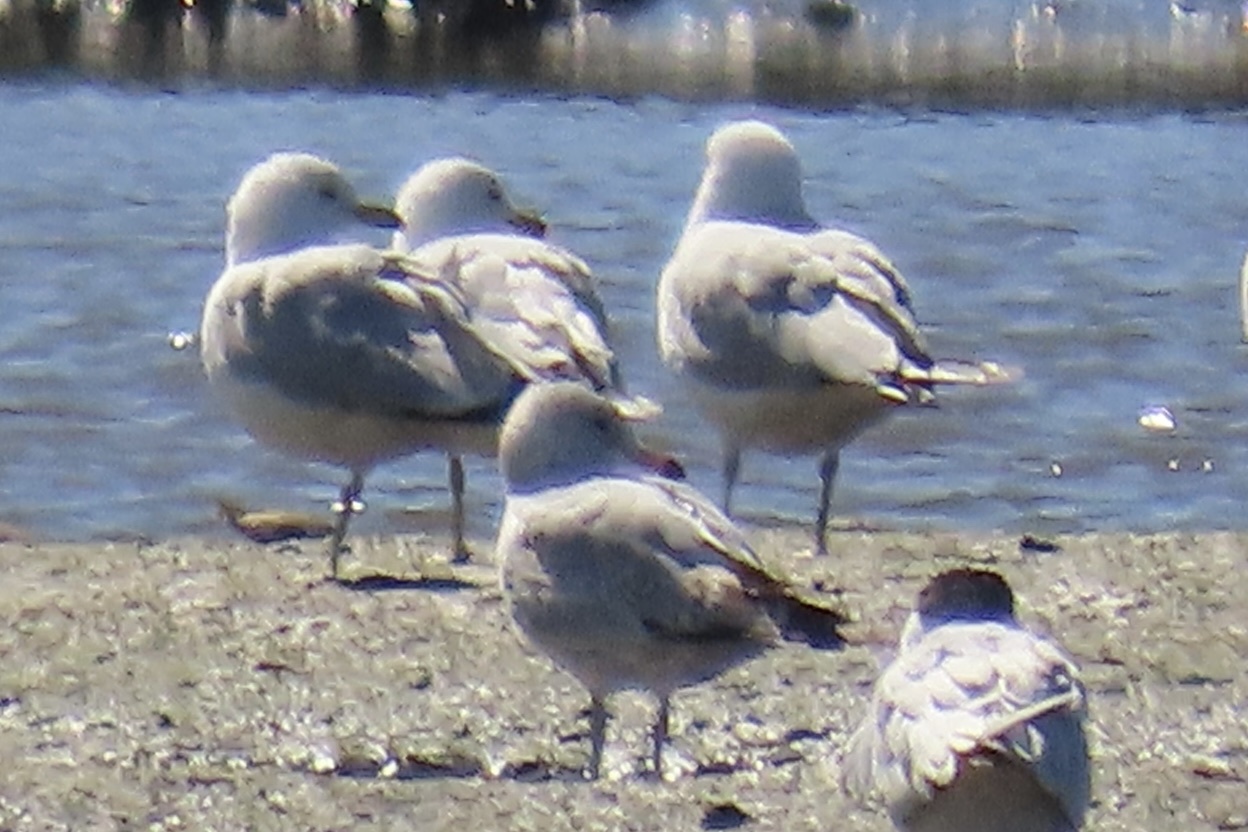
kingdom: Animalia
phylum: Chordata
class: Aves
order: Charadriiformes
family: Laridae
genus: Larus
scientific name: Larus delawarensis
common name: Ring-billed gull
